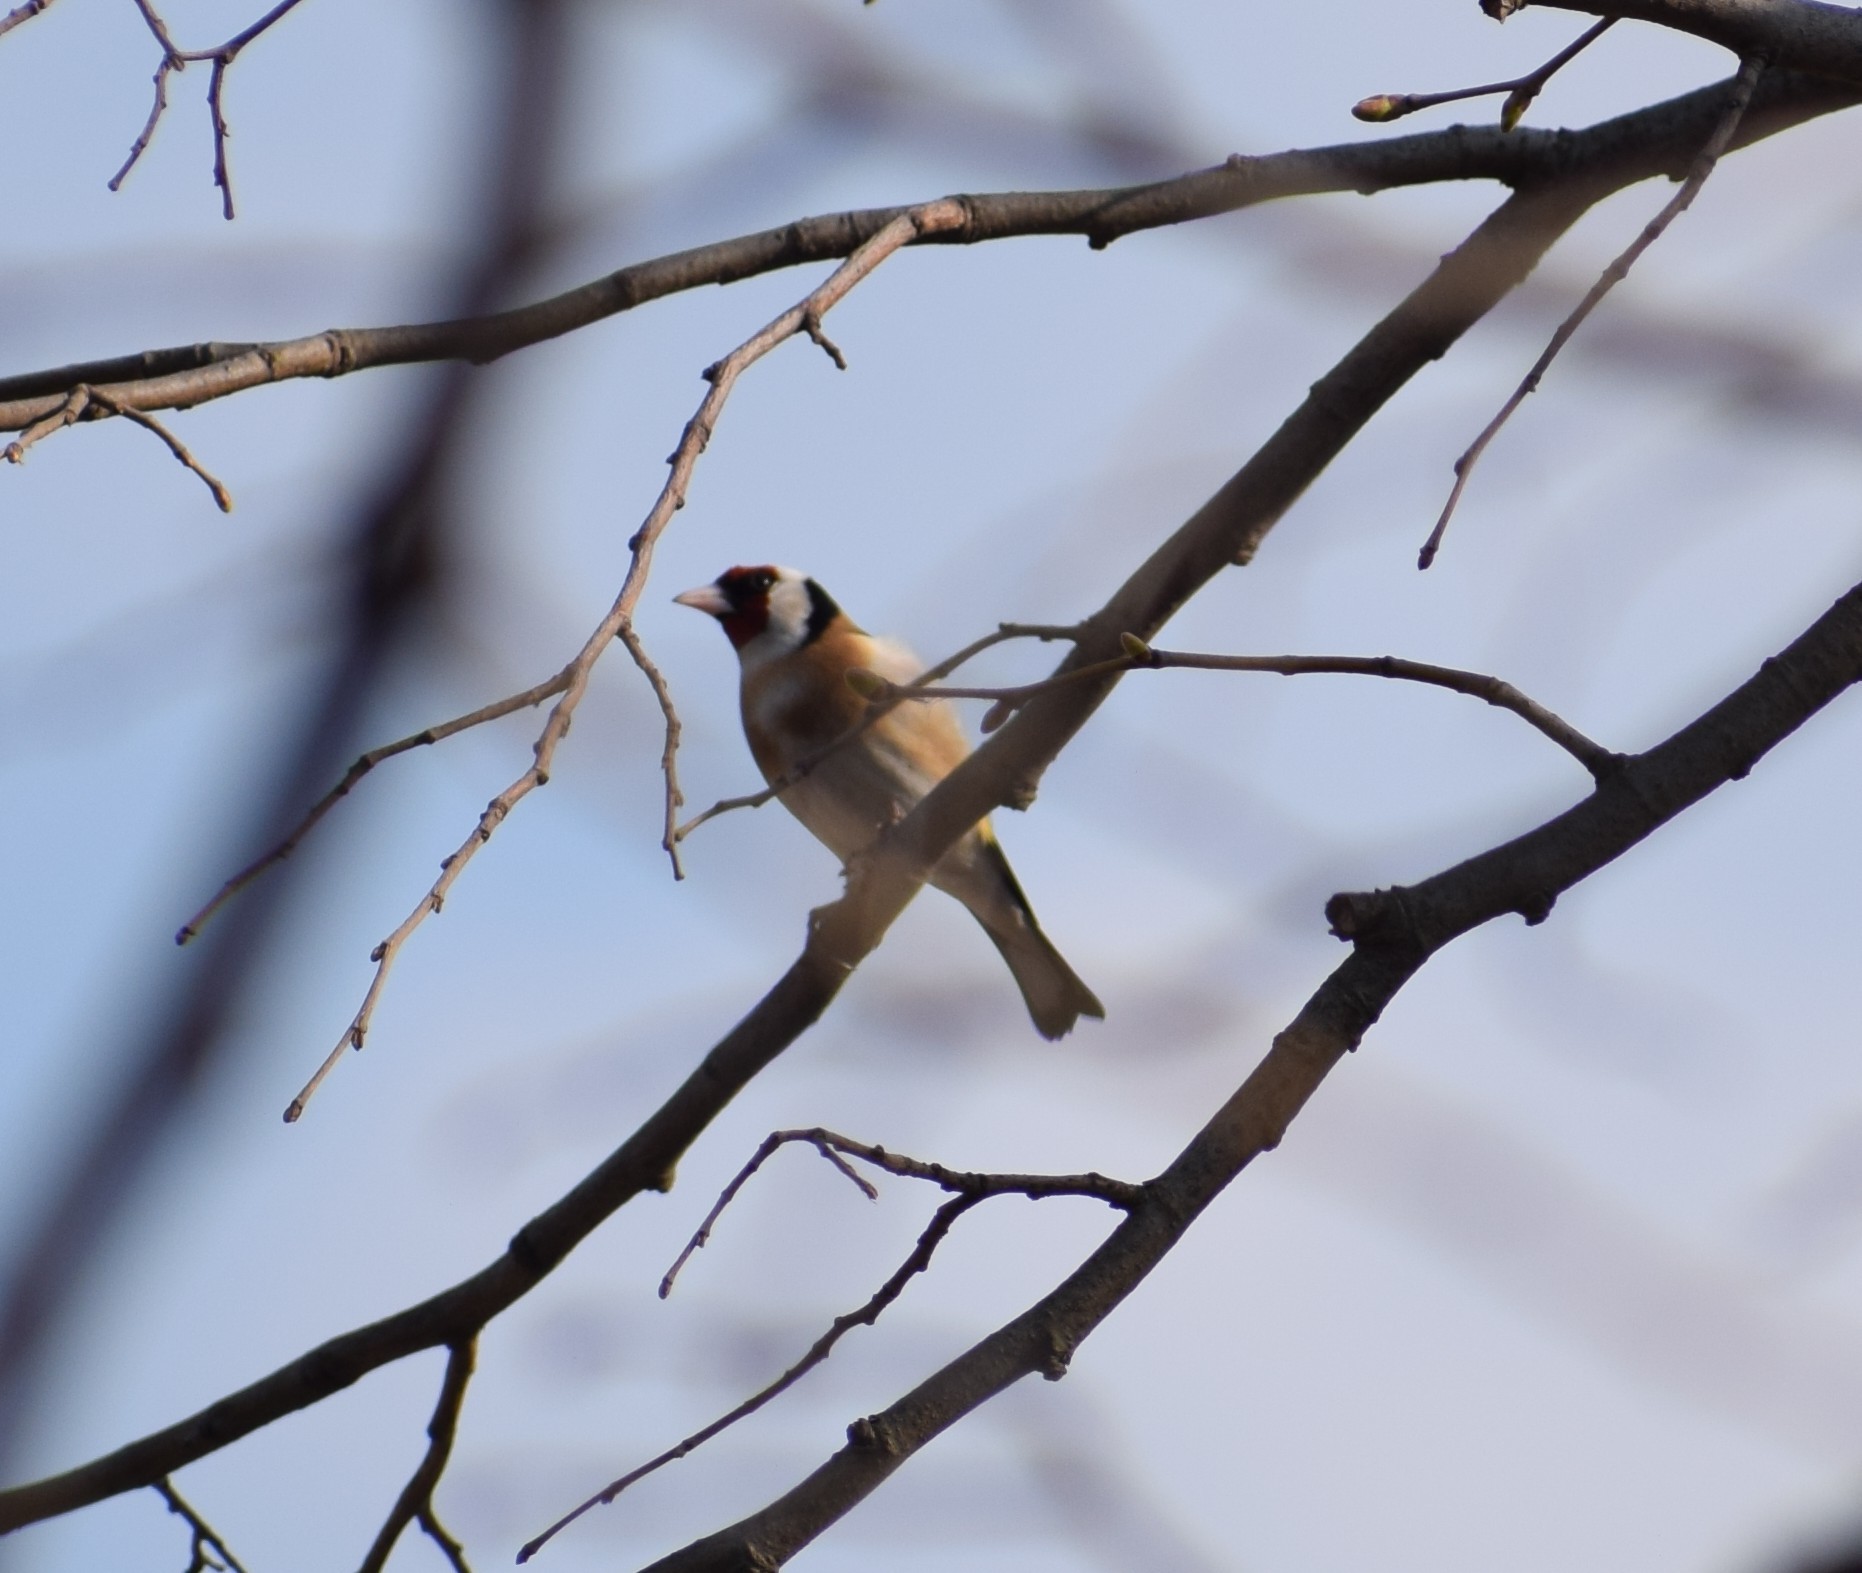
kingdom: Animalia
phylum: Chordata
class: Aves
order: Passeriformes
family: Fringillidae
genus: Carduelis
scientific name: Carduelis carduelis
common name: European goldfinch
